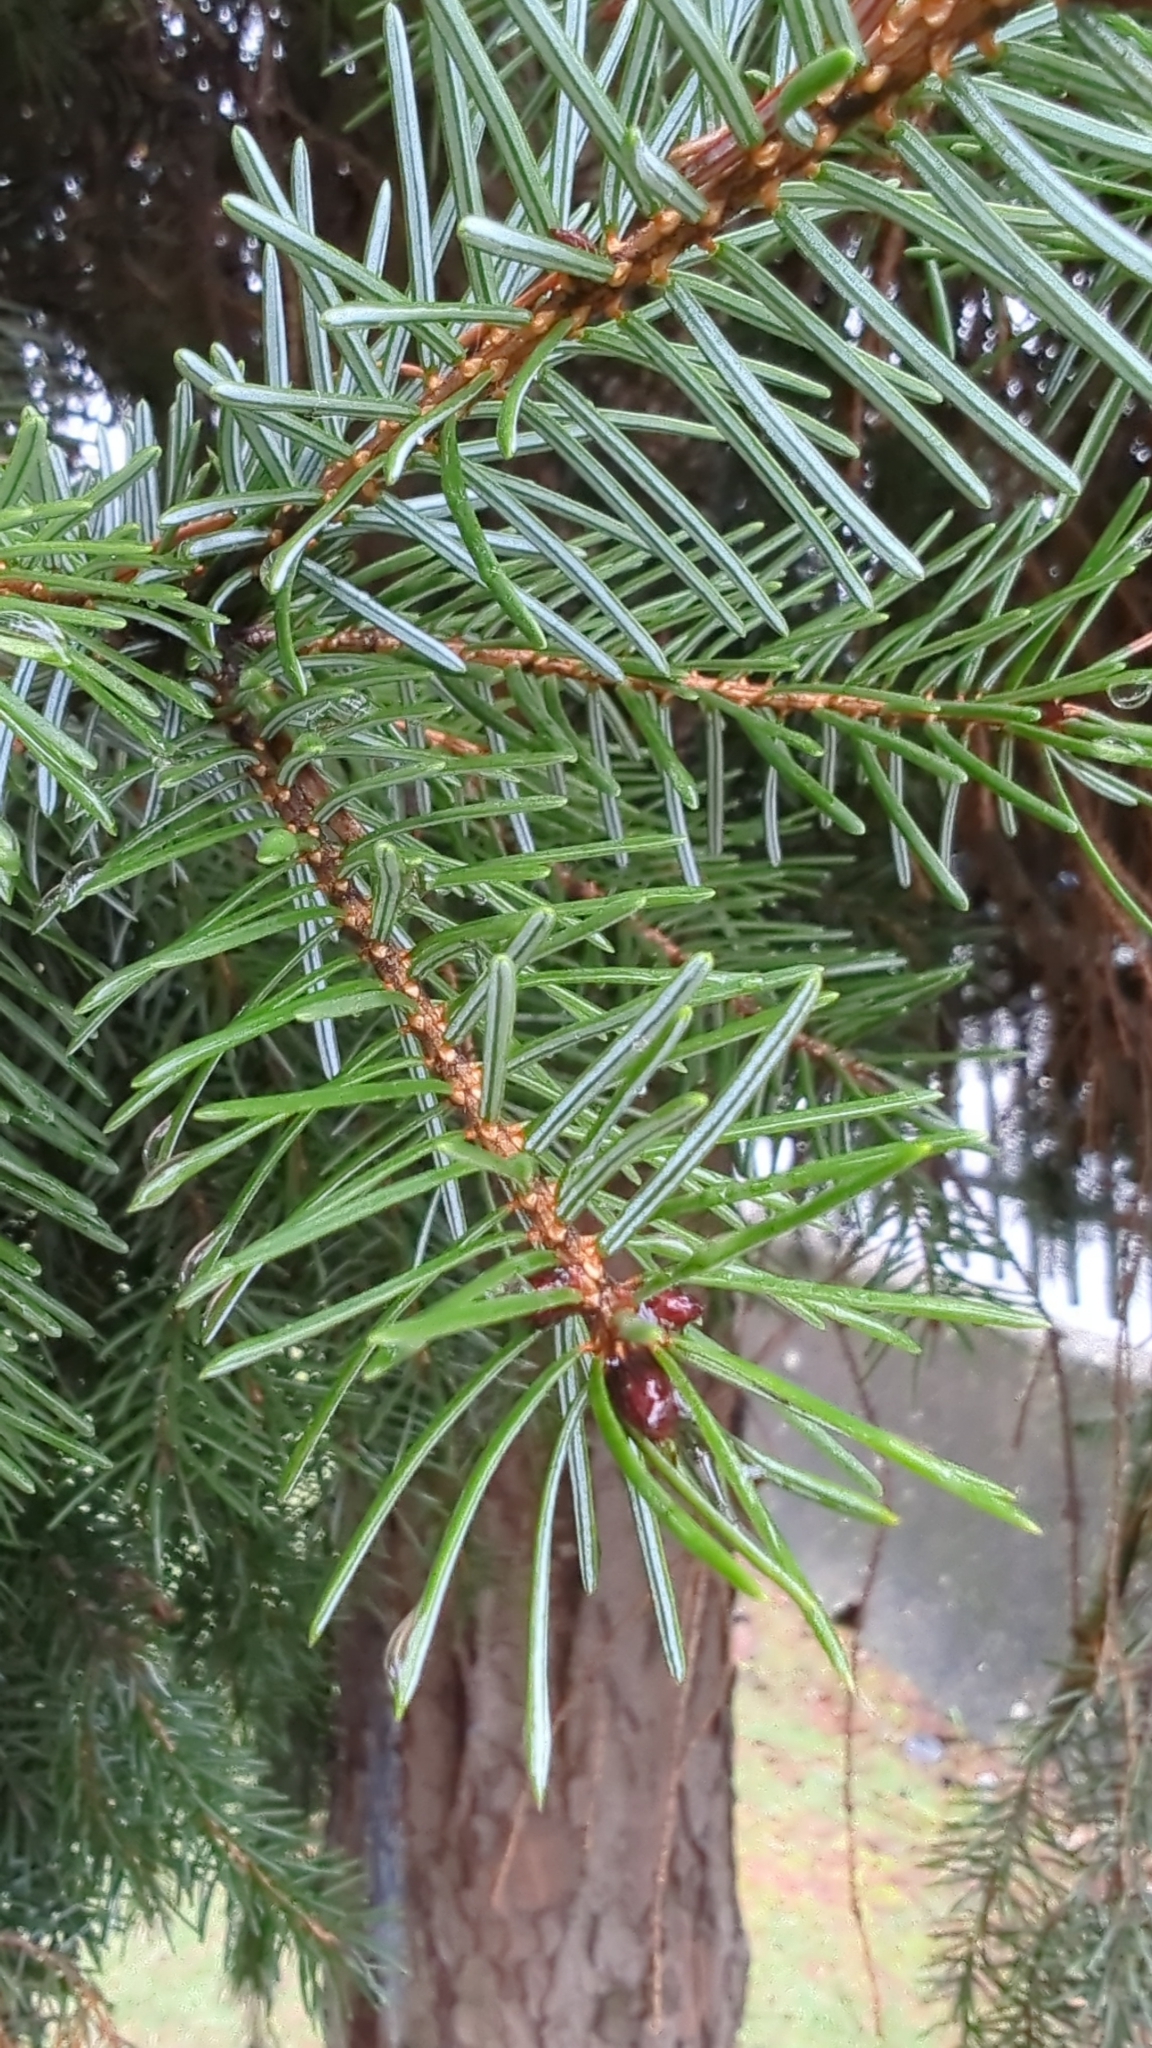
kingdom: Plantae
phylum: Tracheophyta
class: Pinopsida
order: Pinales
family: Pinaceae
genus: Pseudotsuga
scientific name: Pseudotsuga menziesii
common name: Douglas fir
